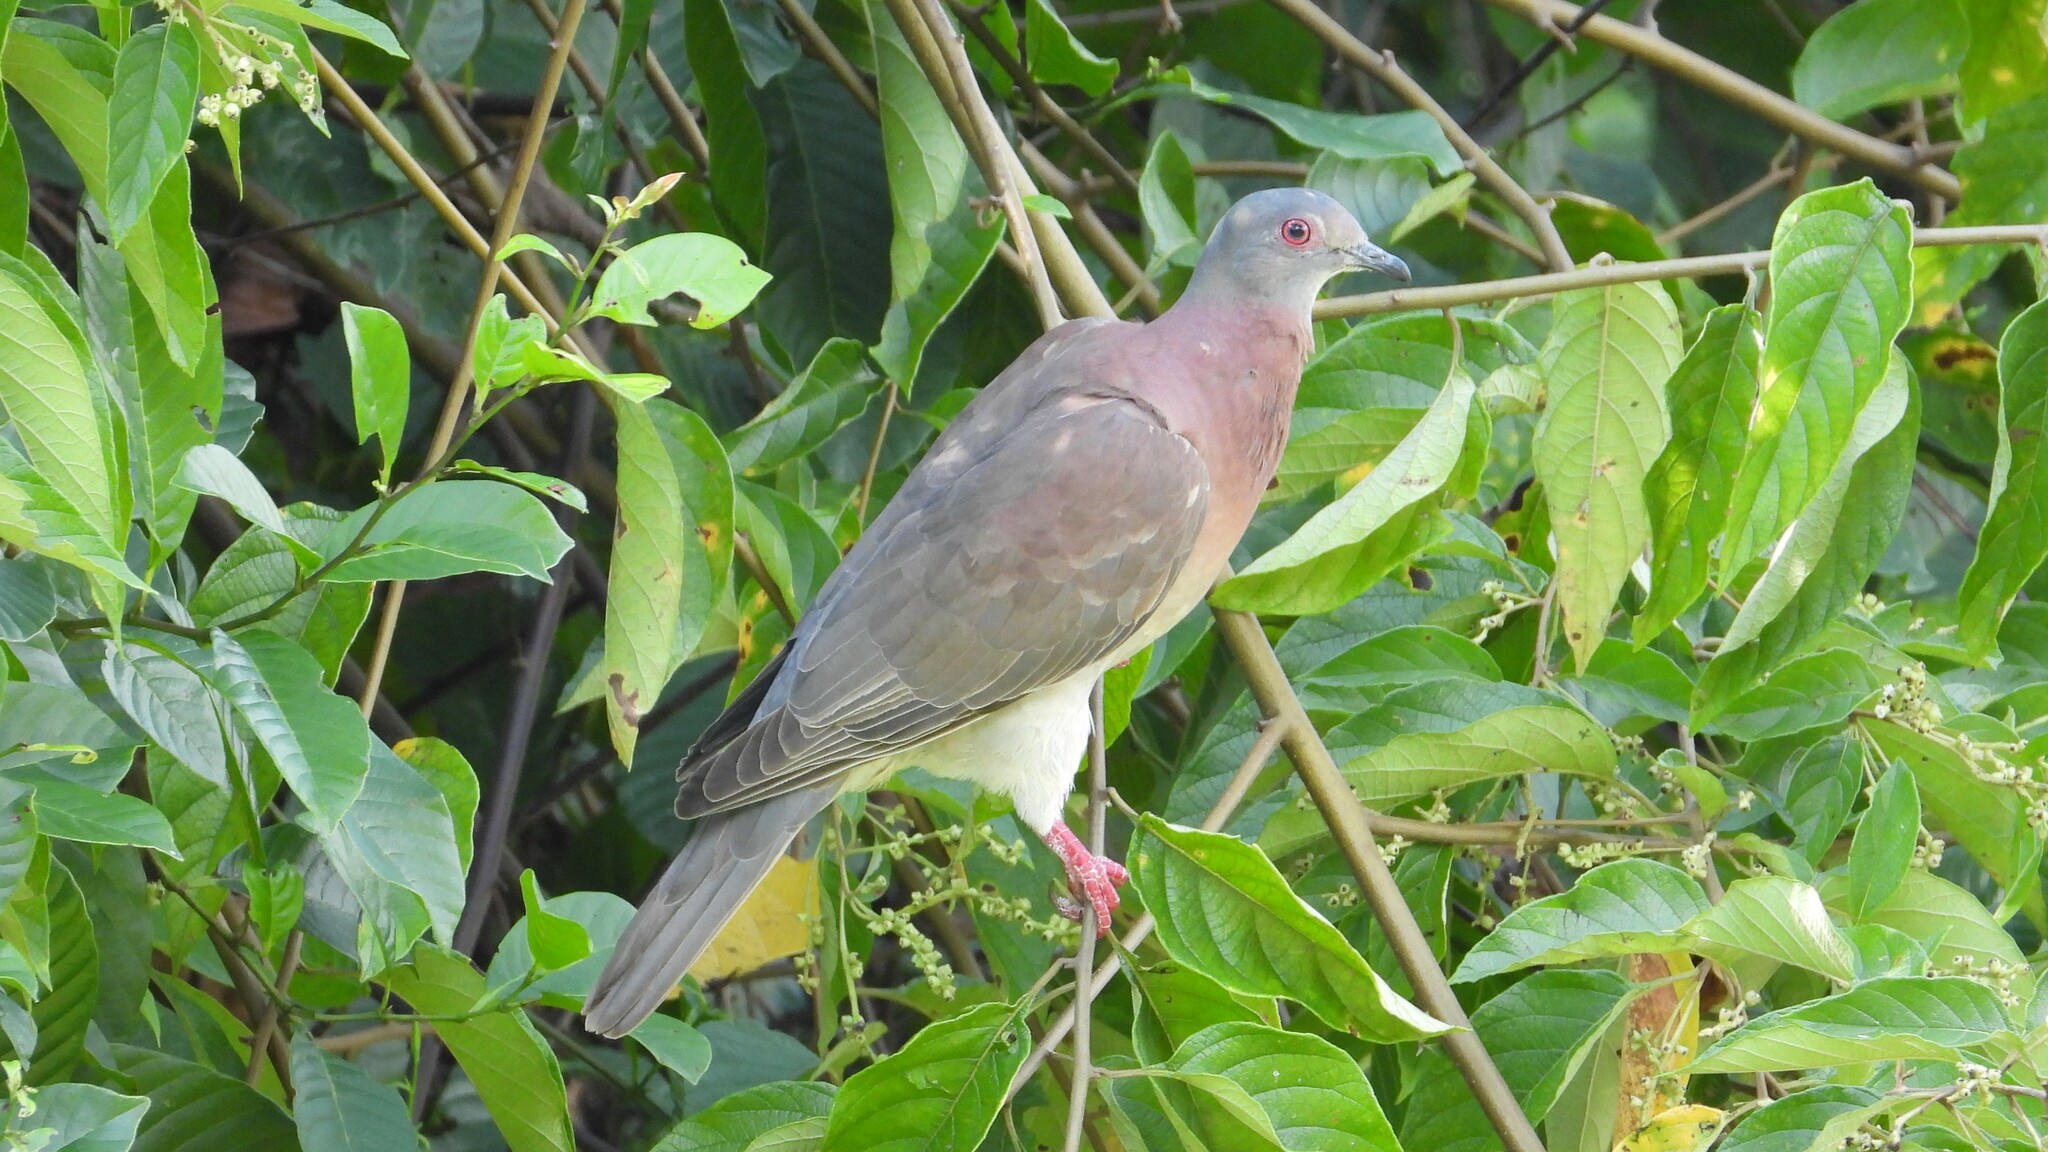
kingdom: Animalia
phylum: Chordata
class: Aves
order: Columbiformes
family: Columbidae
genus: Patagioenas
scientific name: Patagioenas cayennensis
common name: Pale-vented pigeon
